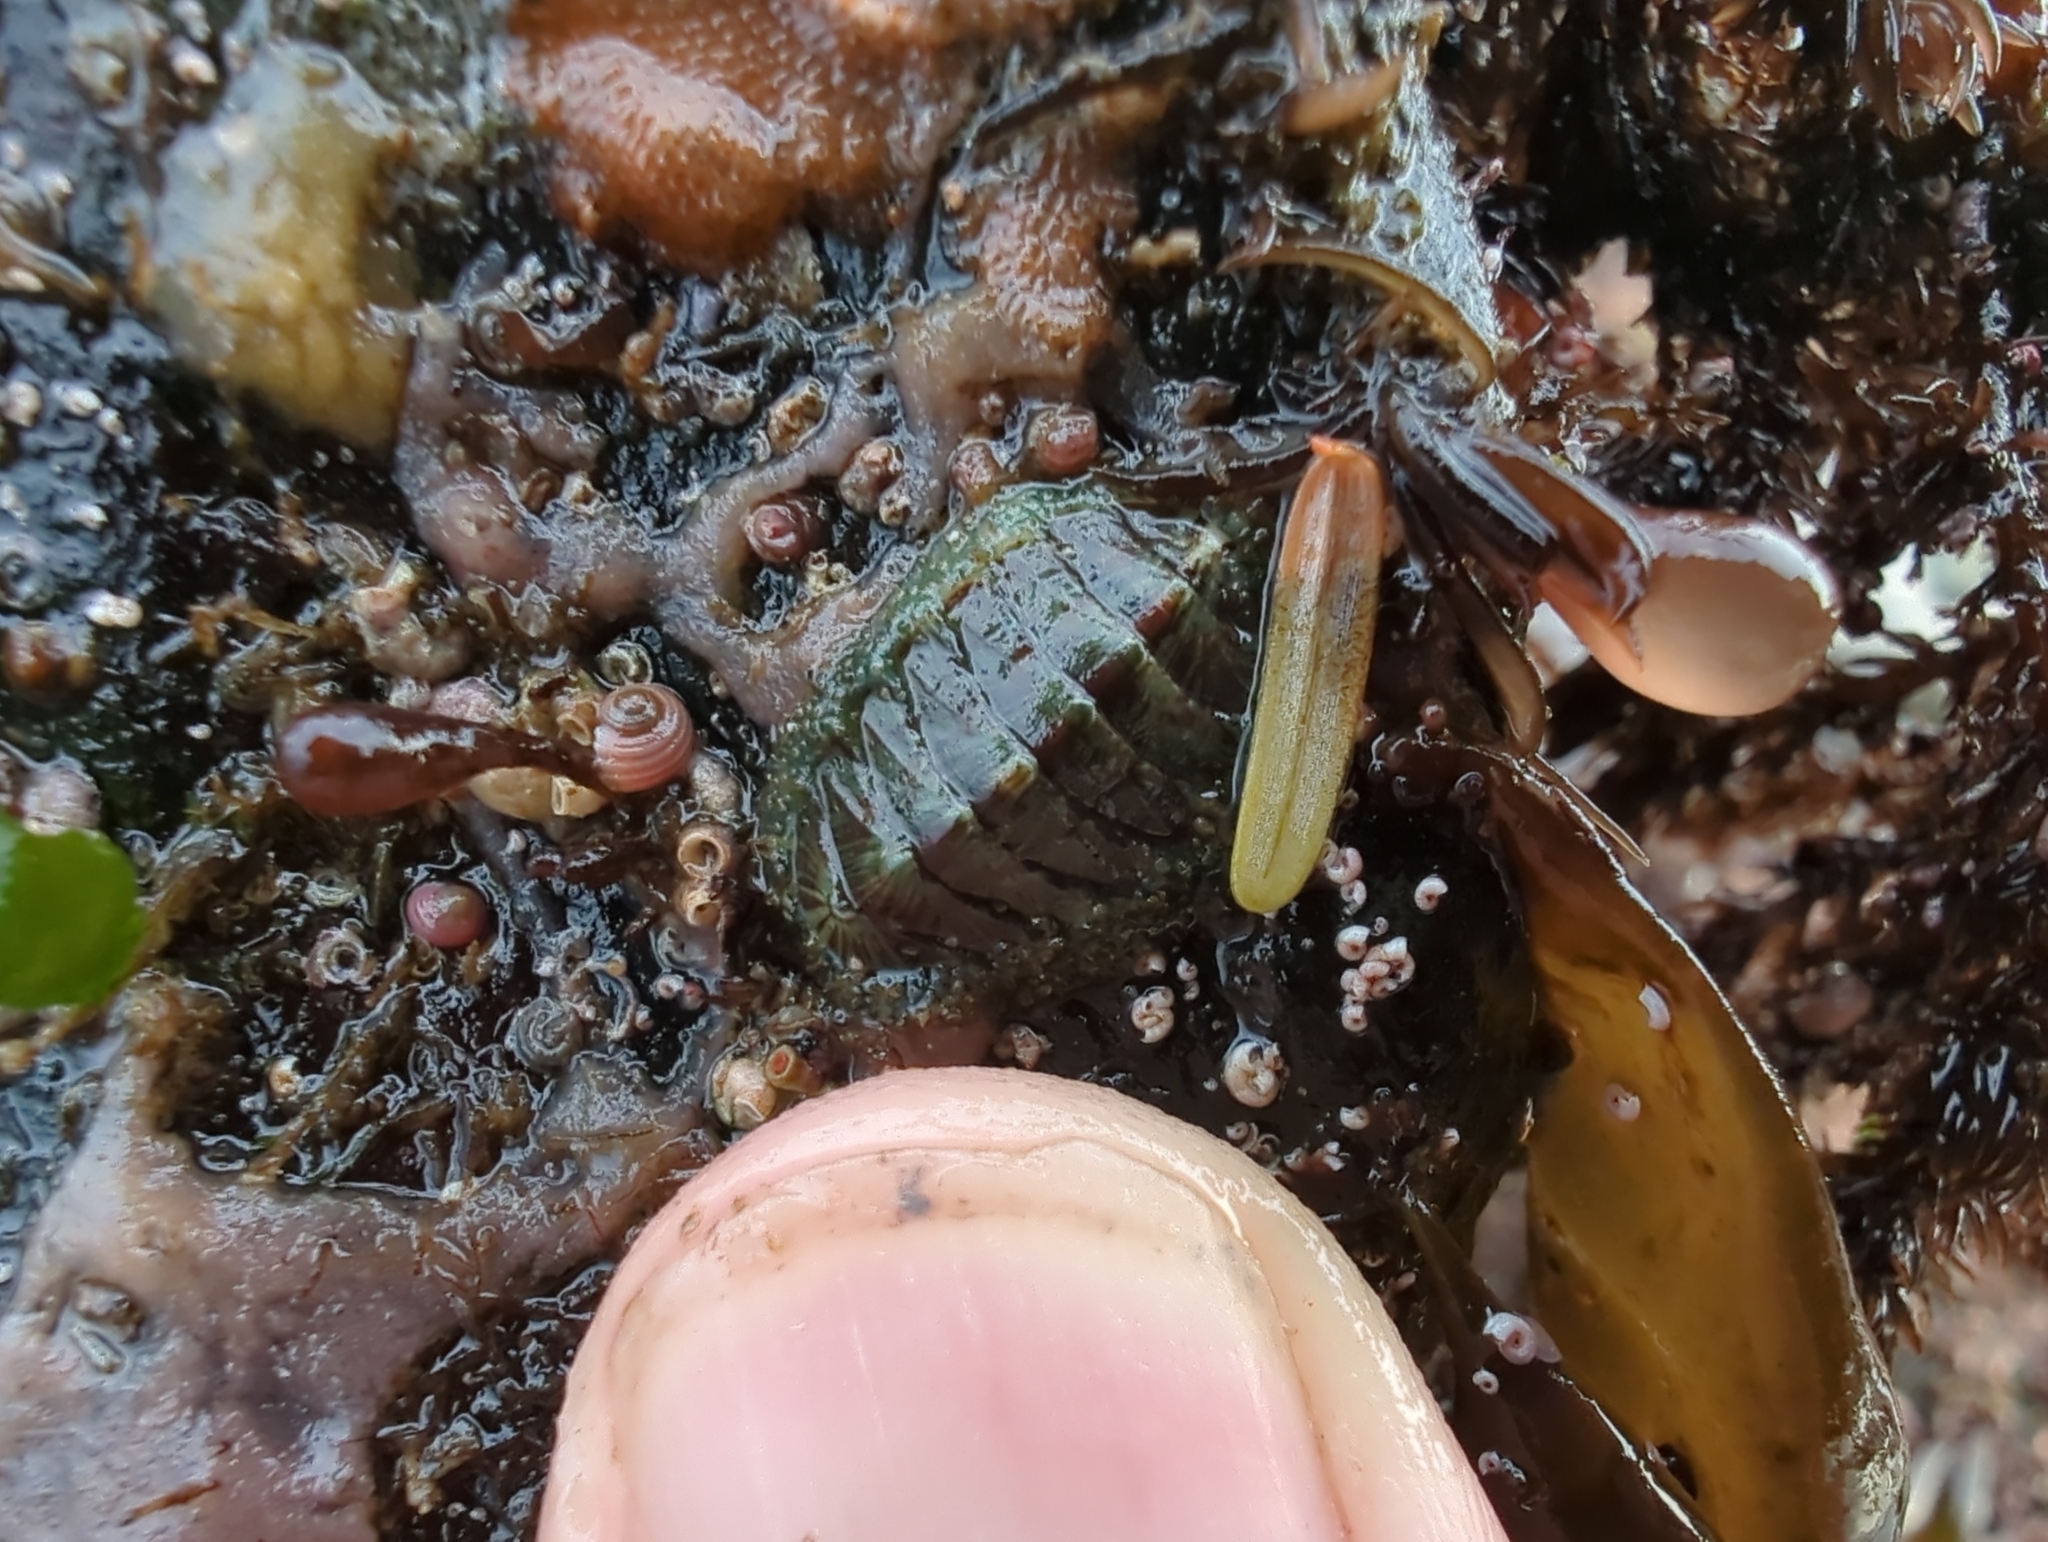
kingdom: Animalia
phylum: Mollusca
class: Polyplacophora
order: Chitonida
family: Mopaliidae
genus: Mopalia
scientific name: Mopalia lignosa
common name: Woody chiton
